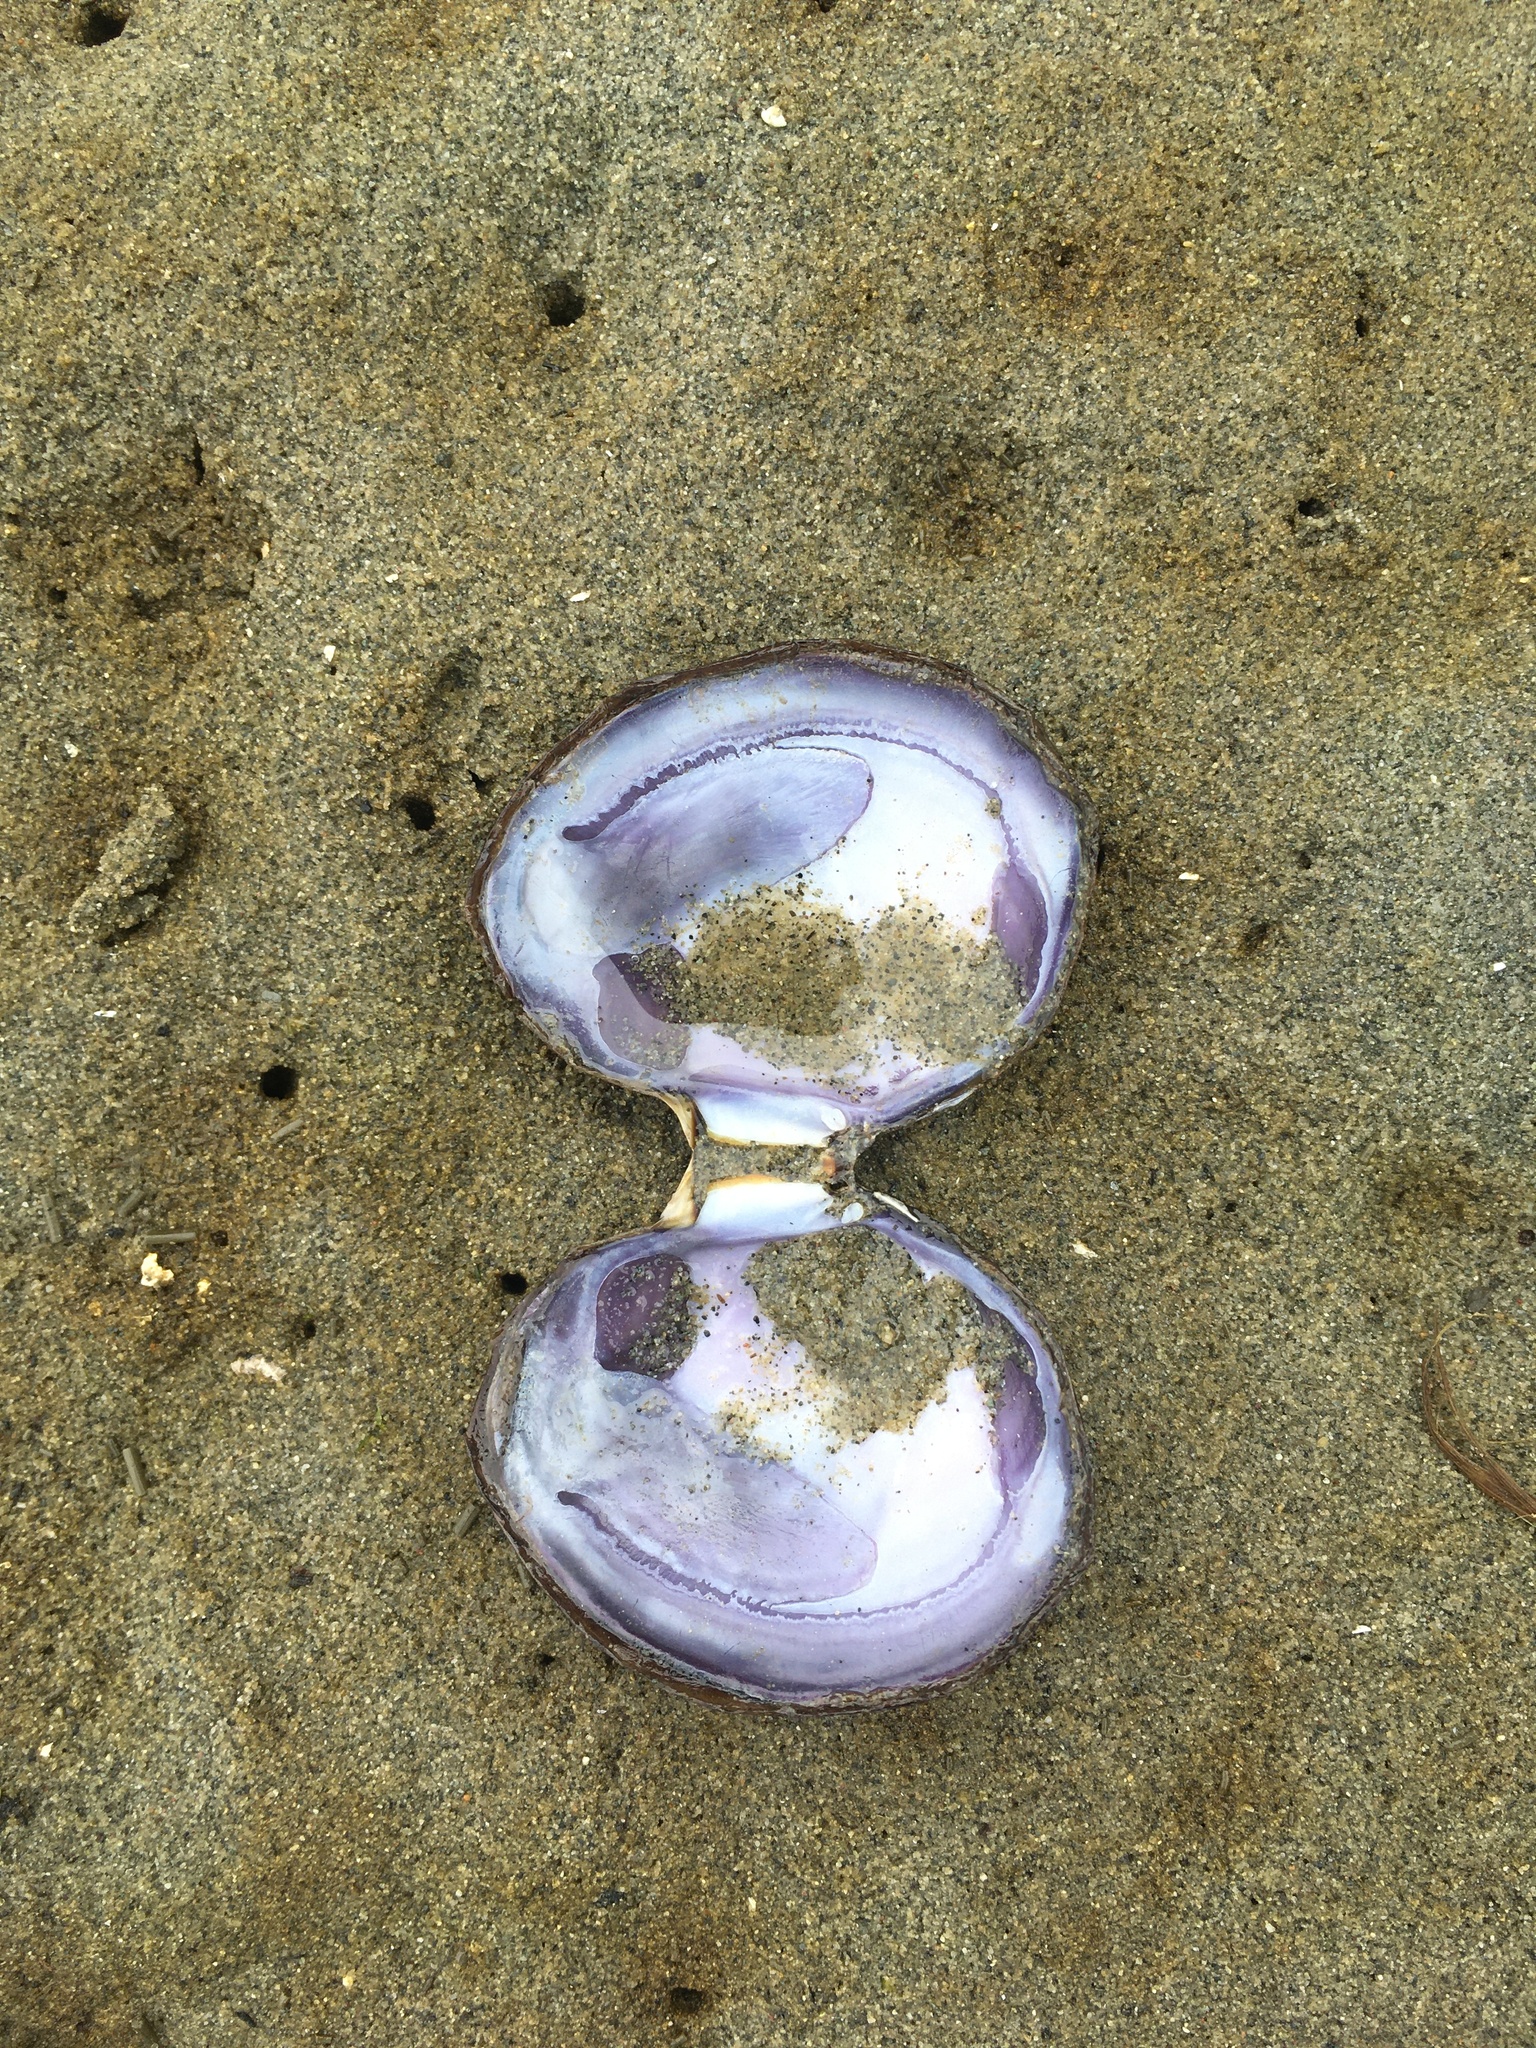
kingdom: Animalia
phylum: Mollusca
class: Bivalvia
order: Cardiida
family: Psammobiidae
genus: Nuttallia
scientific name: Nuttallia obscurata
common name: Purple mahogany-clam
